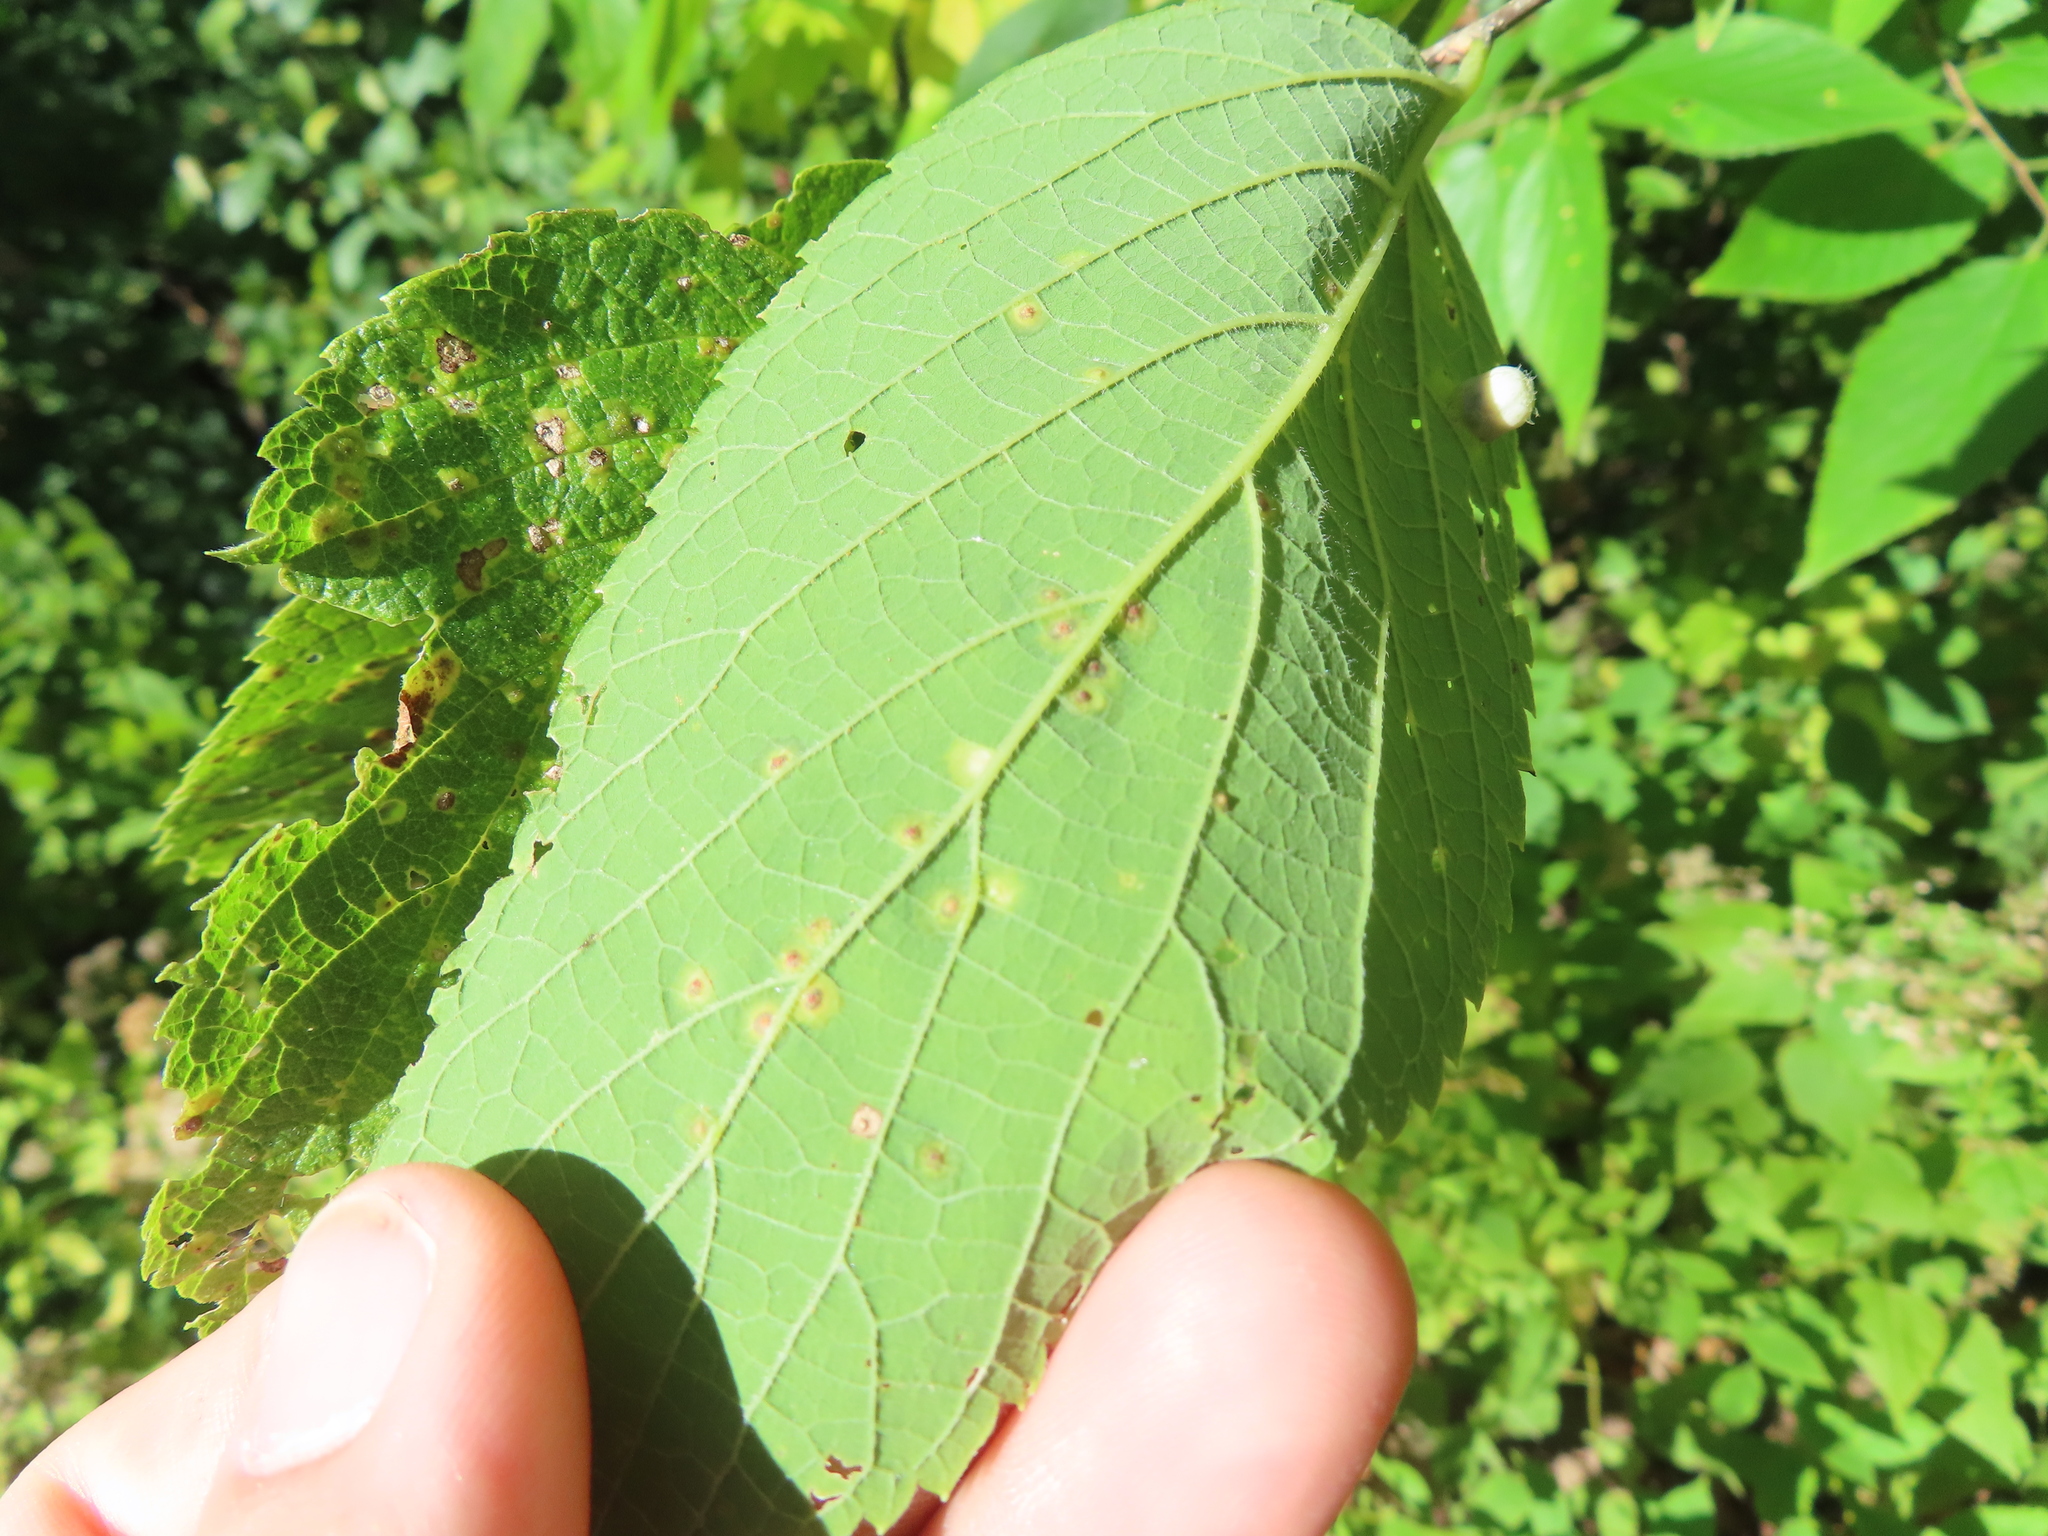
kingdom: Animalia
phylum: Arthropoda
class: Insecta
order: Hemiptera
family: Aphalaridae
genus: Pachypsylla
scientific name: Pachypsylla celtidisvesicula
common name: Hackberry blister gall psyllid
